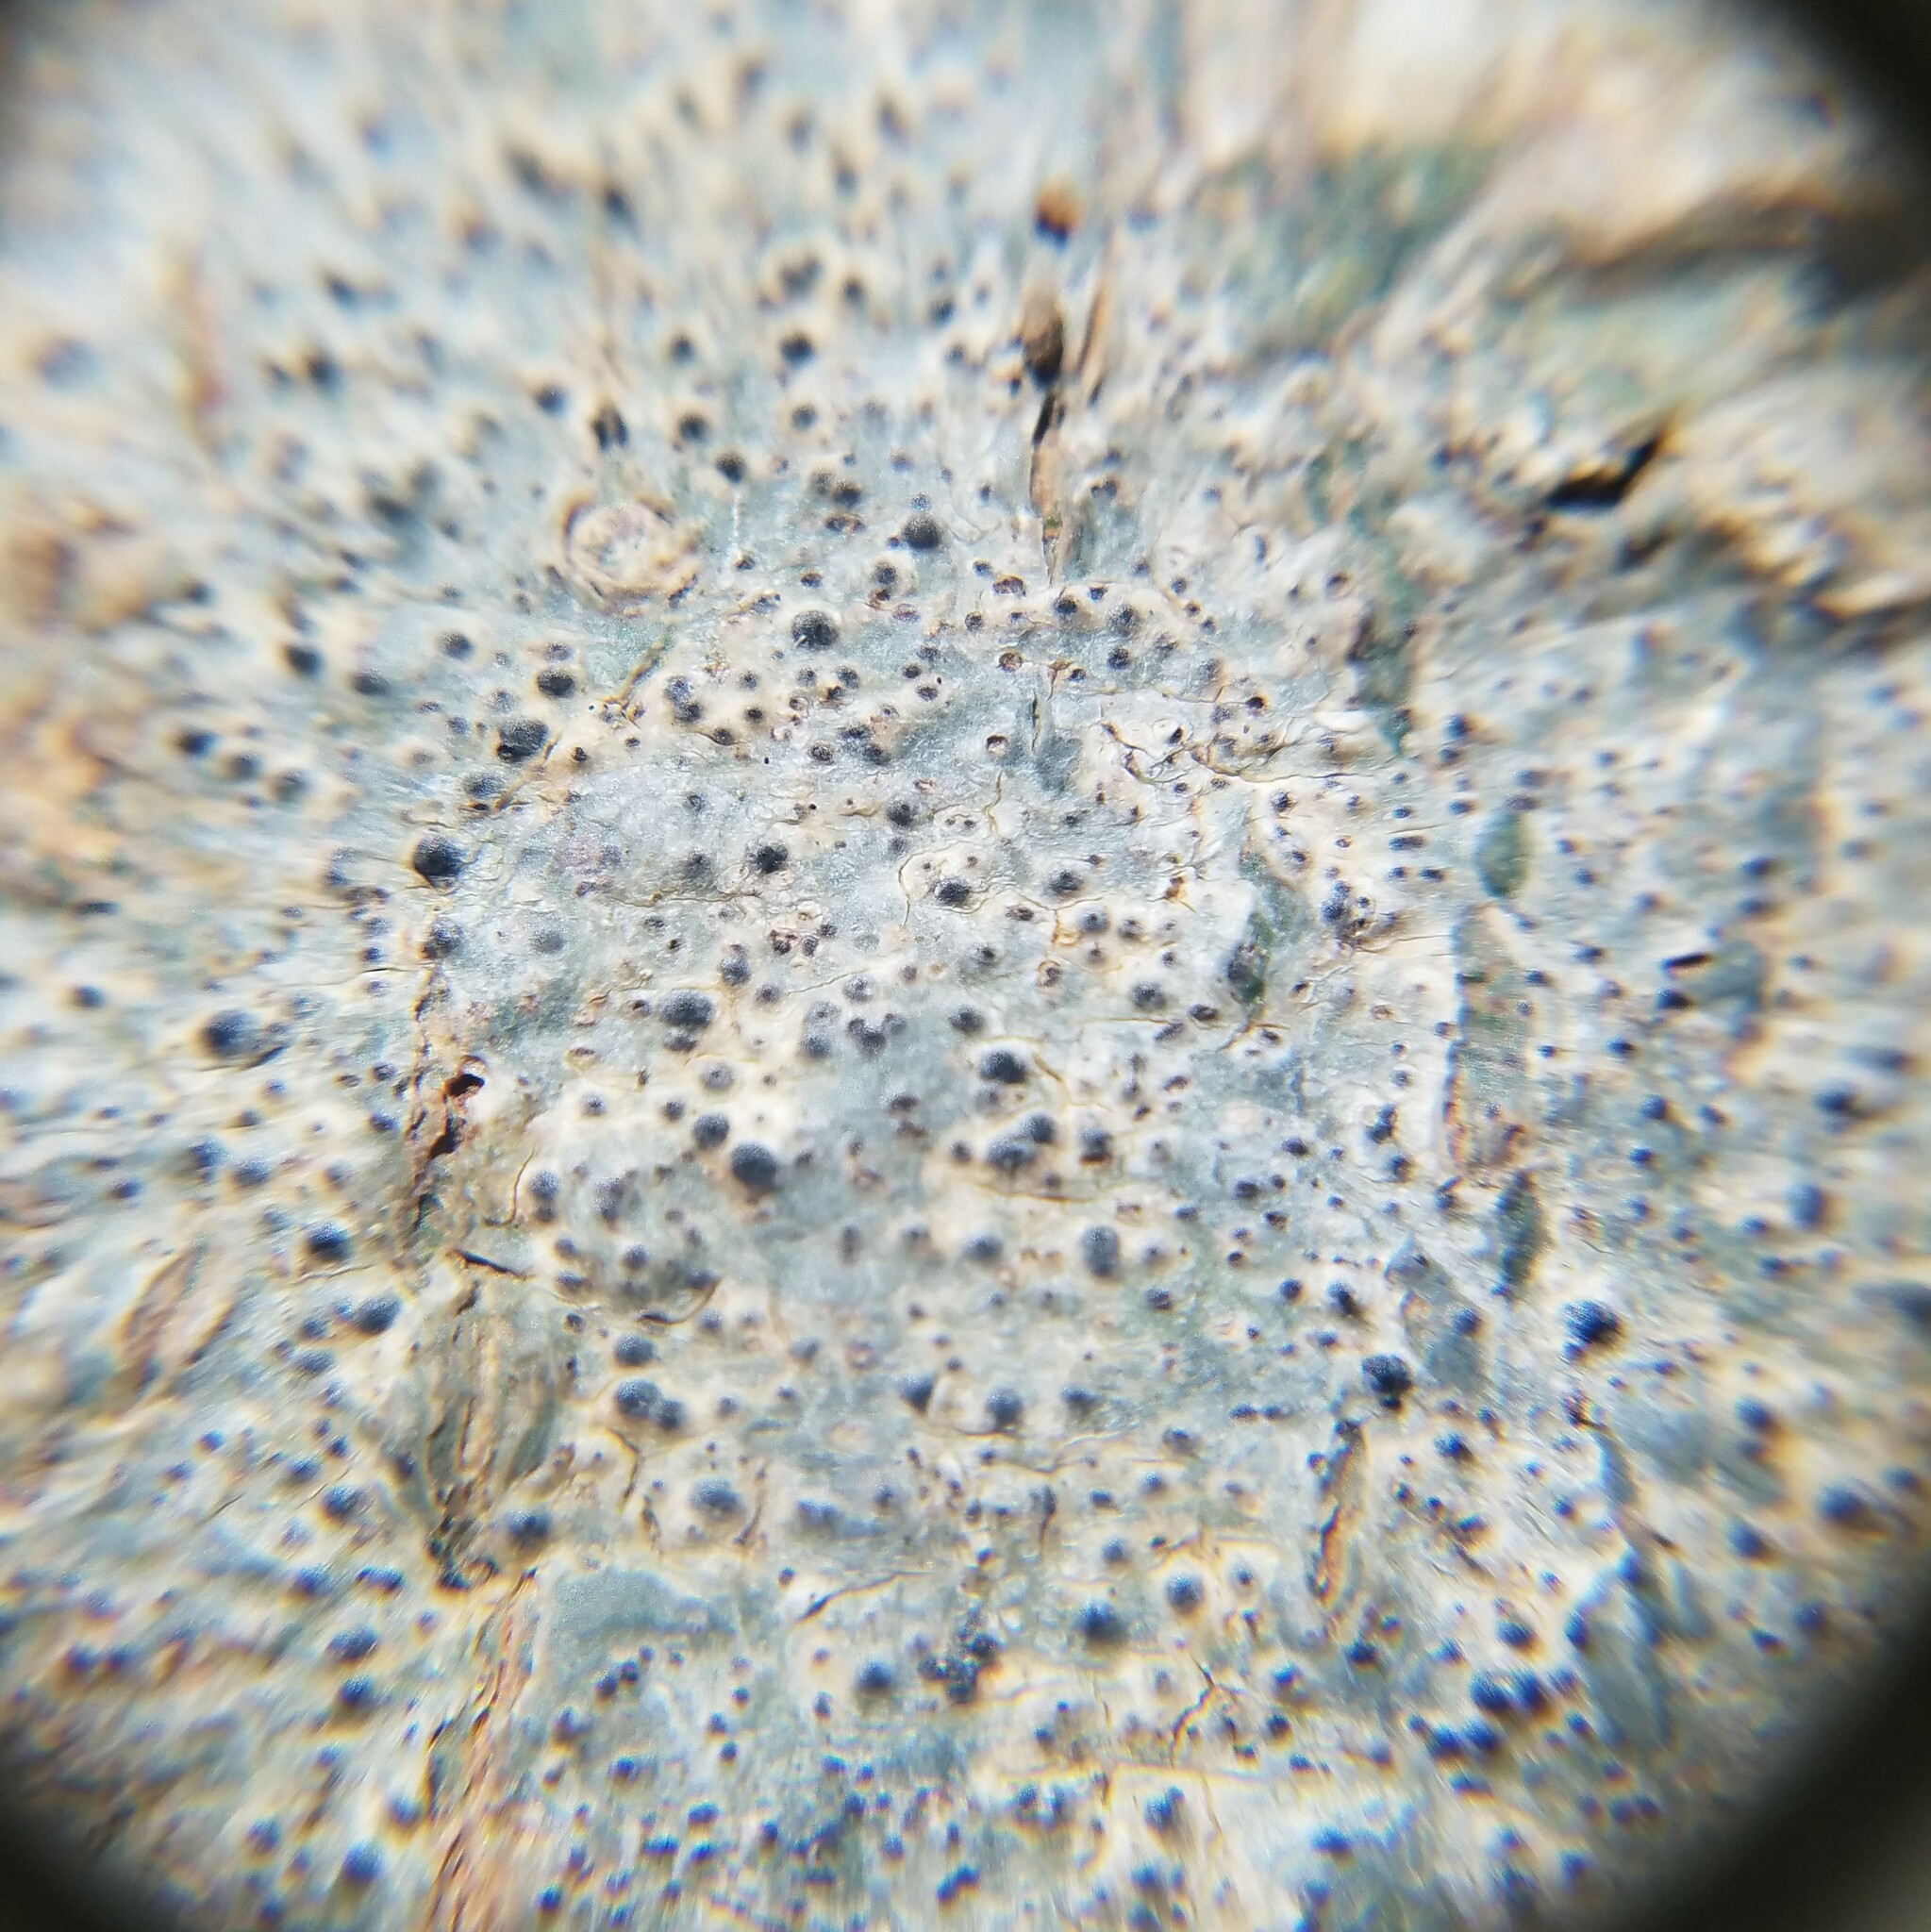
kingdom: Fungi
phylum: Ascomycota
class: Eurotiomycetes
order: Pyrenulales
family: Pyrenulaceae
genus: Pyrenula
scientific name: Pyrenula punctella
